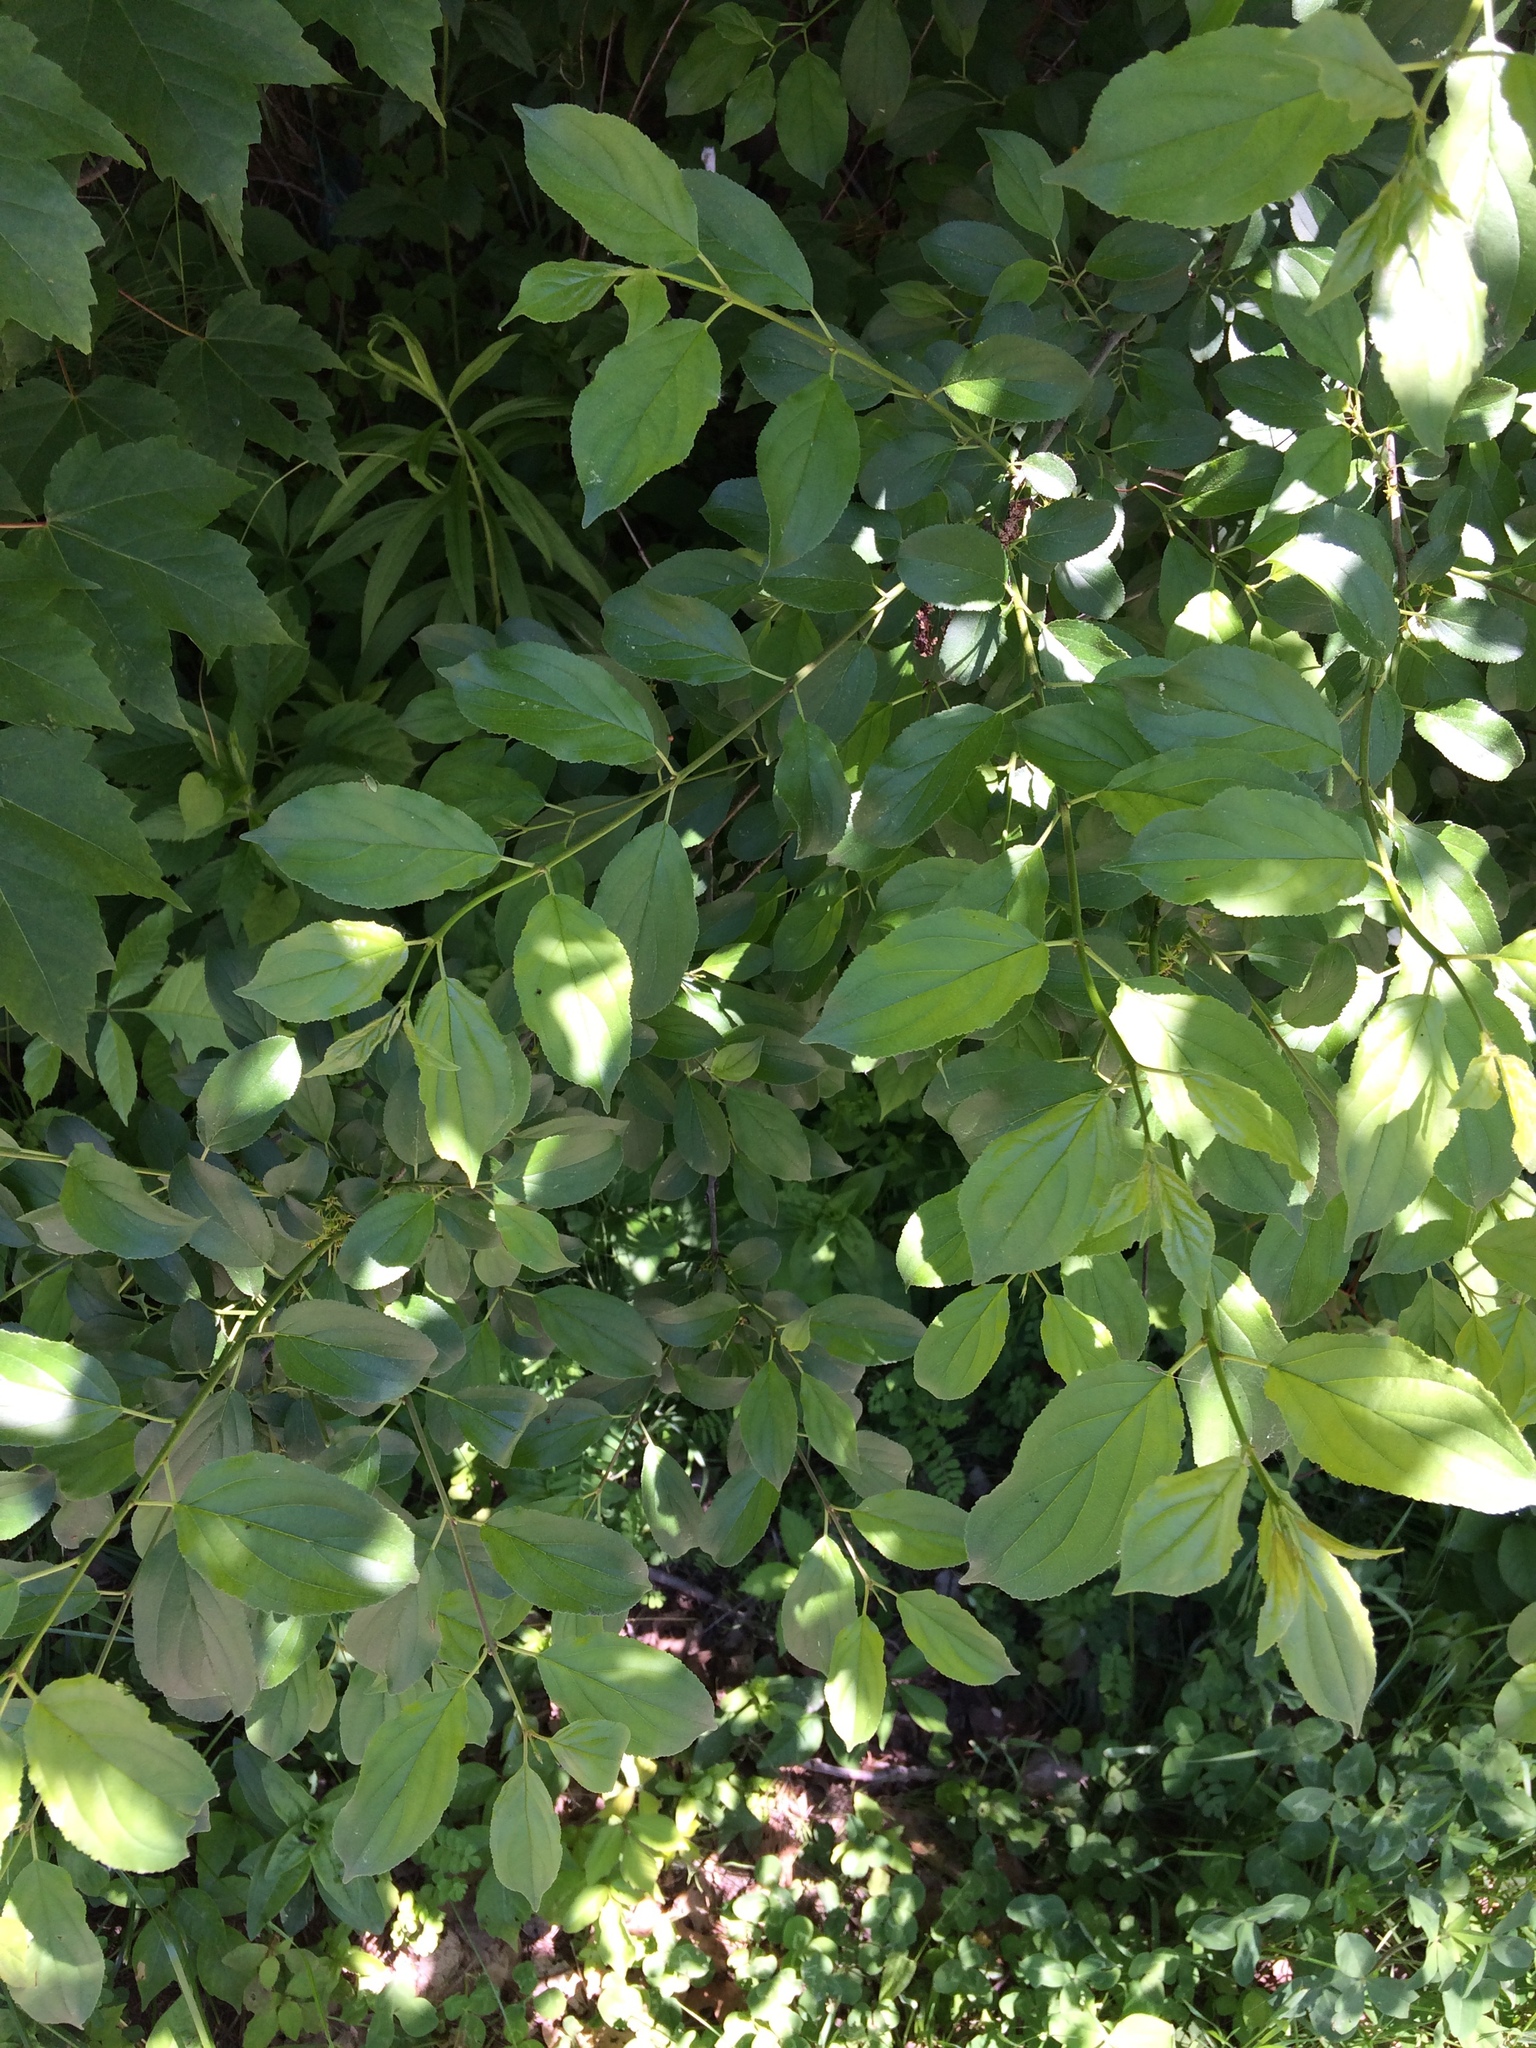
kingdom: Plantae
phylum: Tracheophyta
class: Magnoliopsida
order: Rosales
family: Rhamnaceae
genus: Rhamnus
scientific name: Rhamnus cathartica
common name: Common buckthorn
